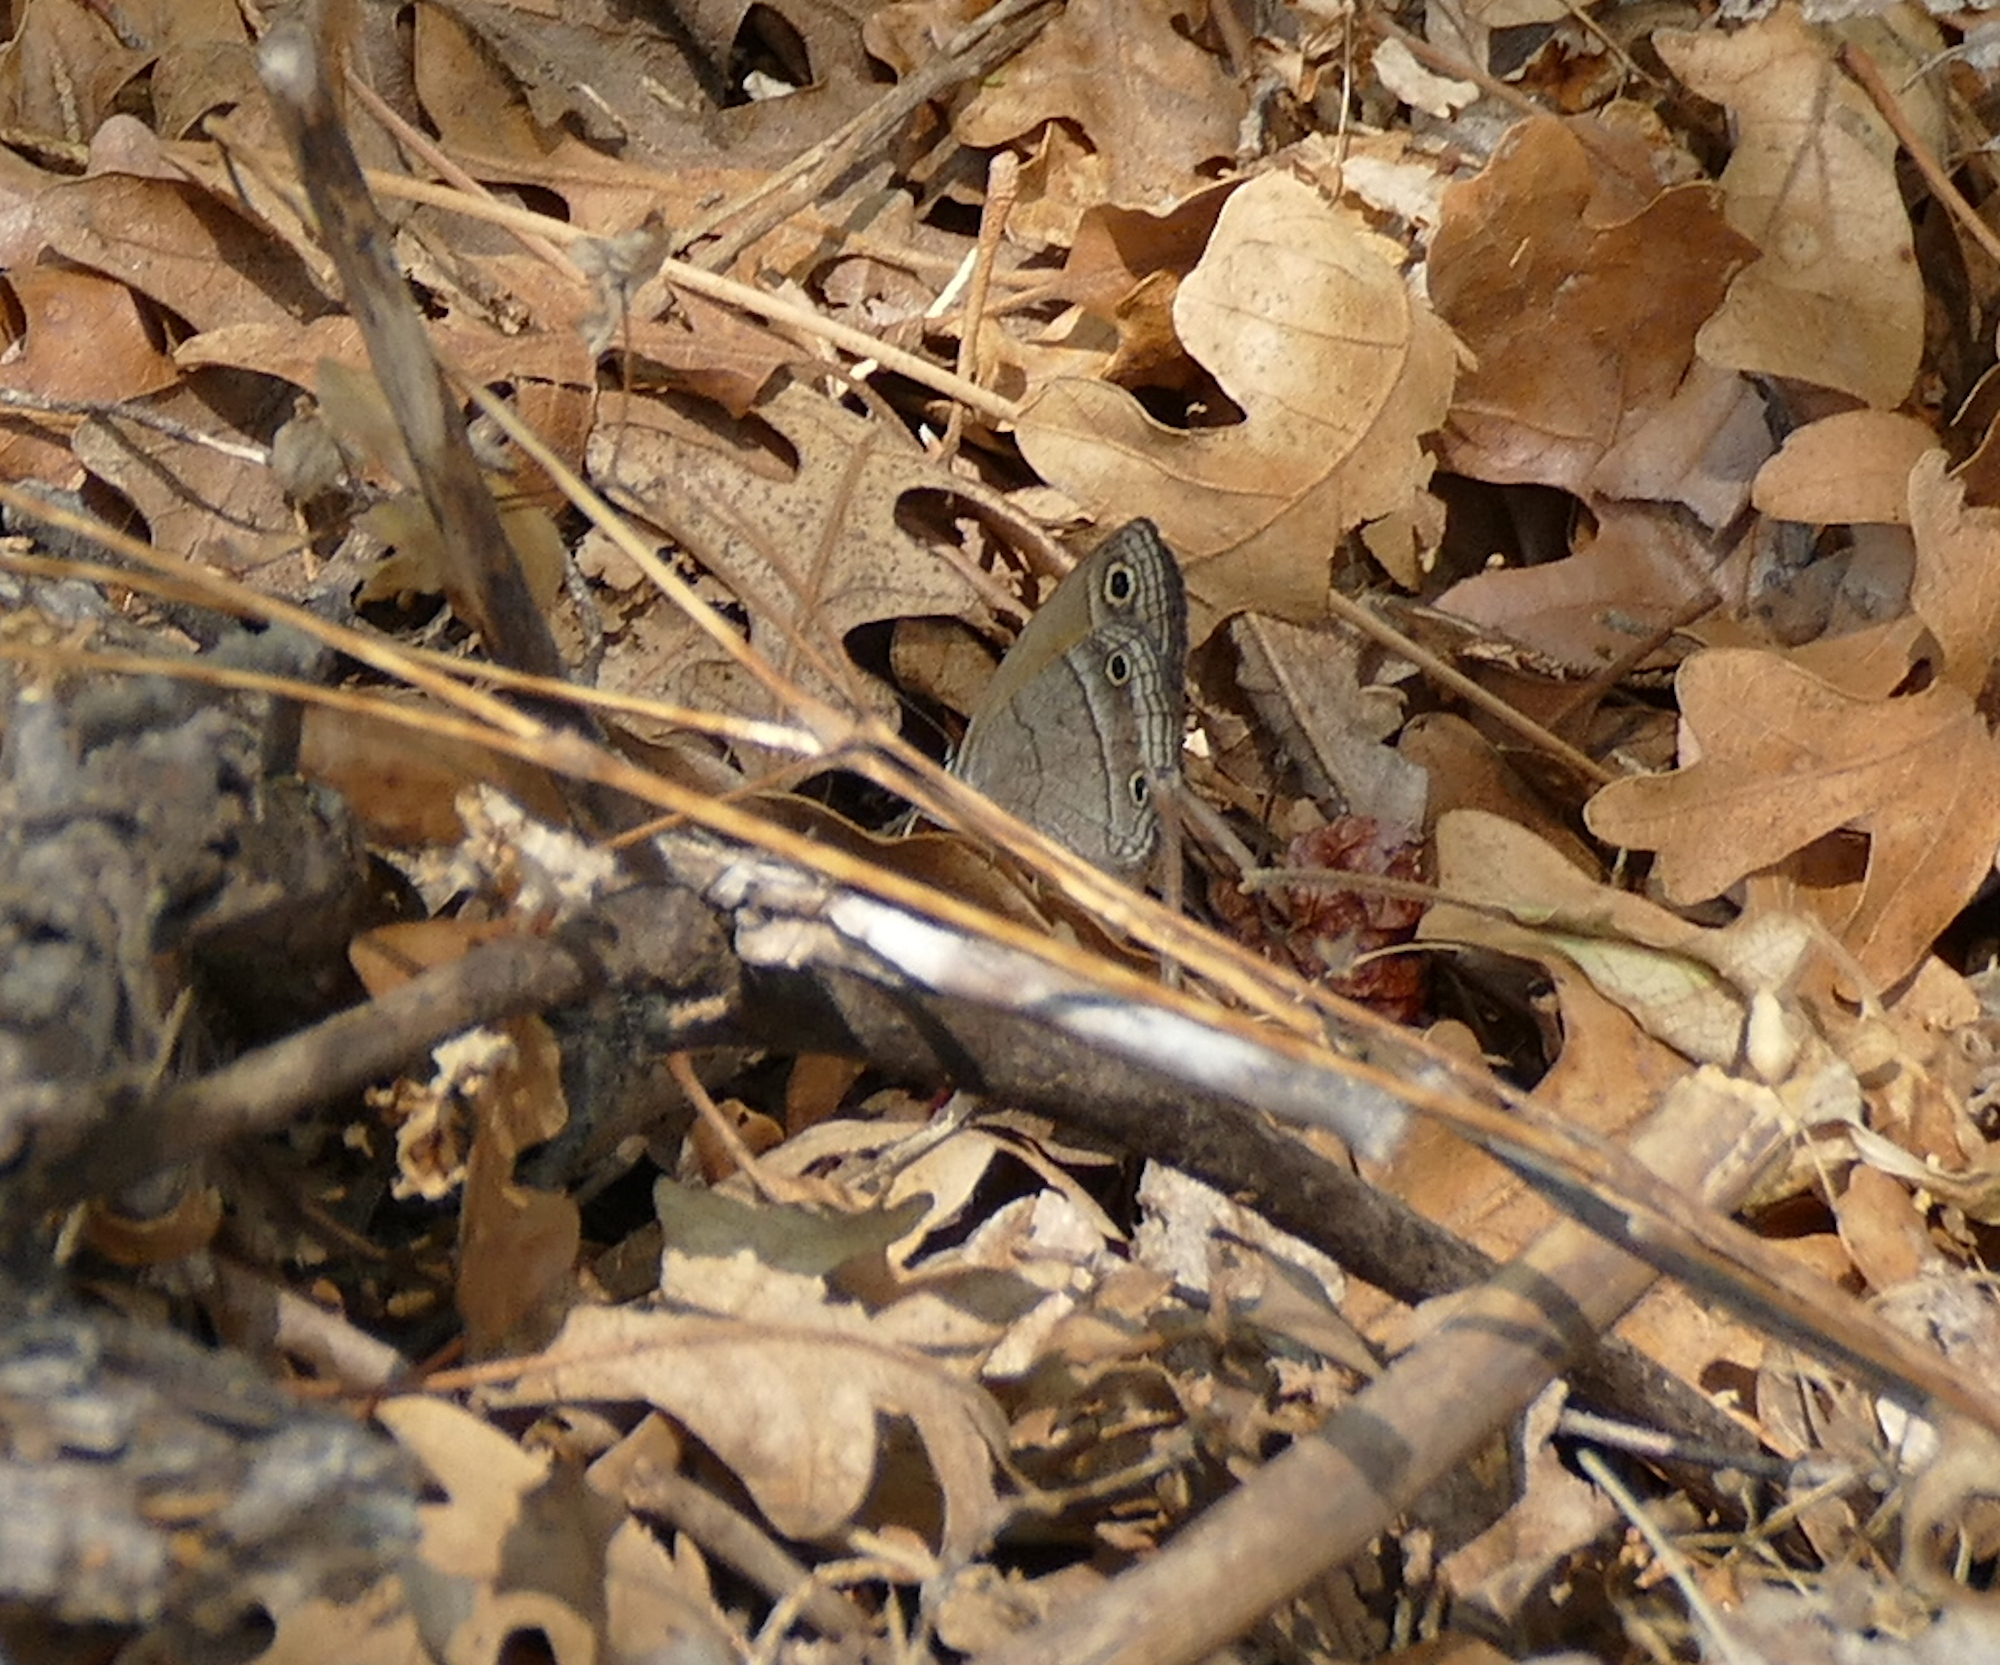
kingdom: Animalia
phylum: Arthropoda
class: Insecta
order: Lepidoptera
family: Nymphalidae
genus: Euptychia
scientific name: Euptychia
